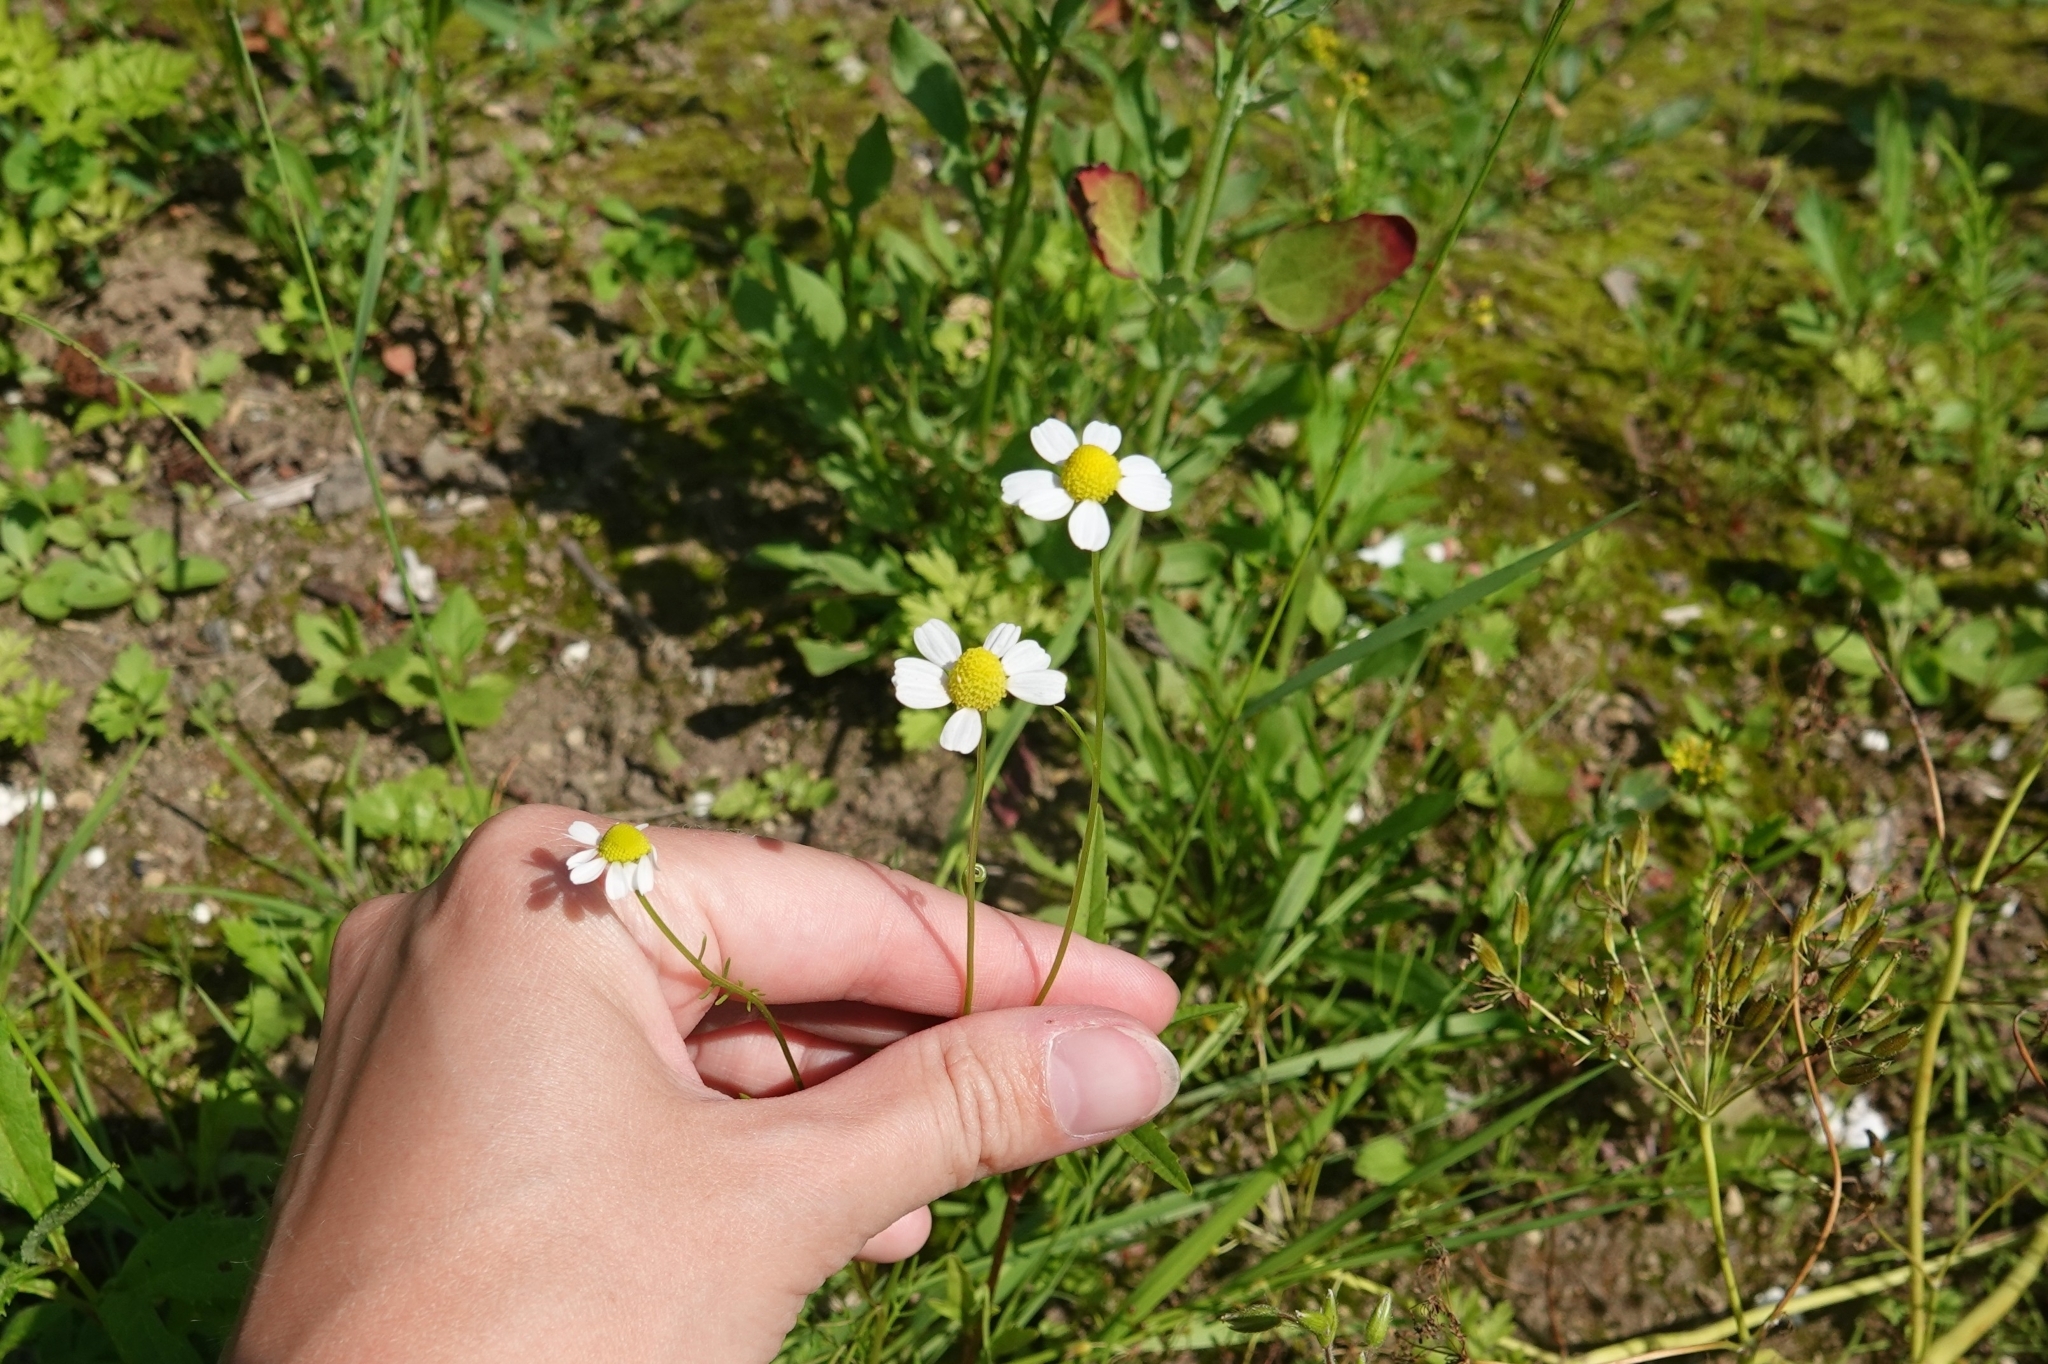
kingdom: Plantae
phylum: Tracheophyta
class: Magnoliopsida
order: Asterales
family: Asteraceae
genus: Matricaria
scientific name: Matricaria chamomilla
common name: Scented mayweed
